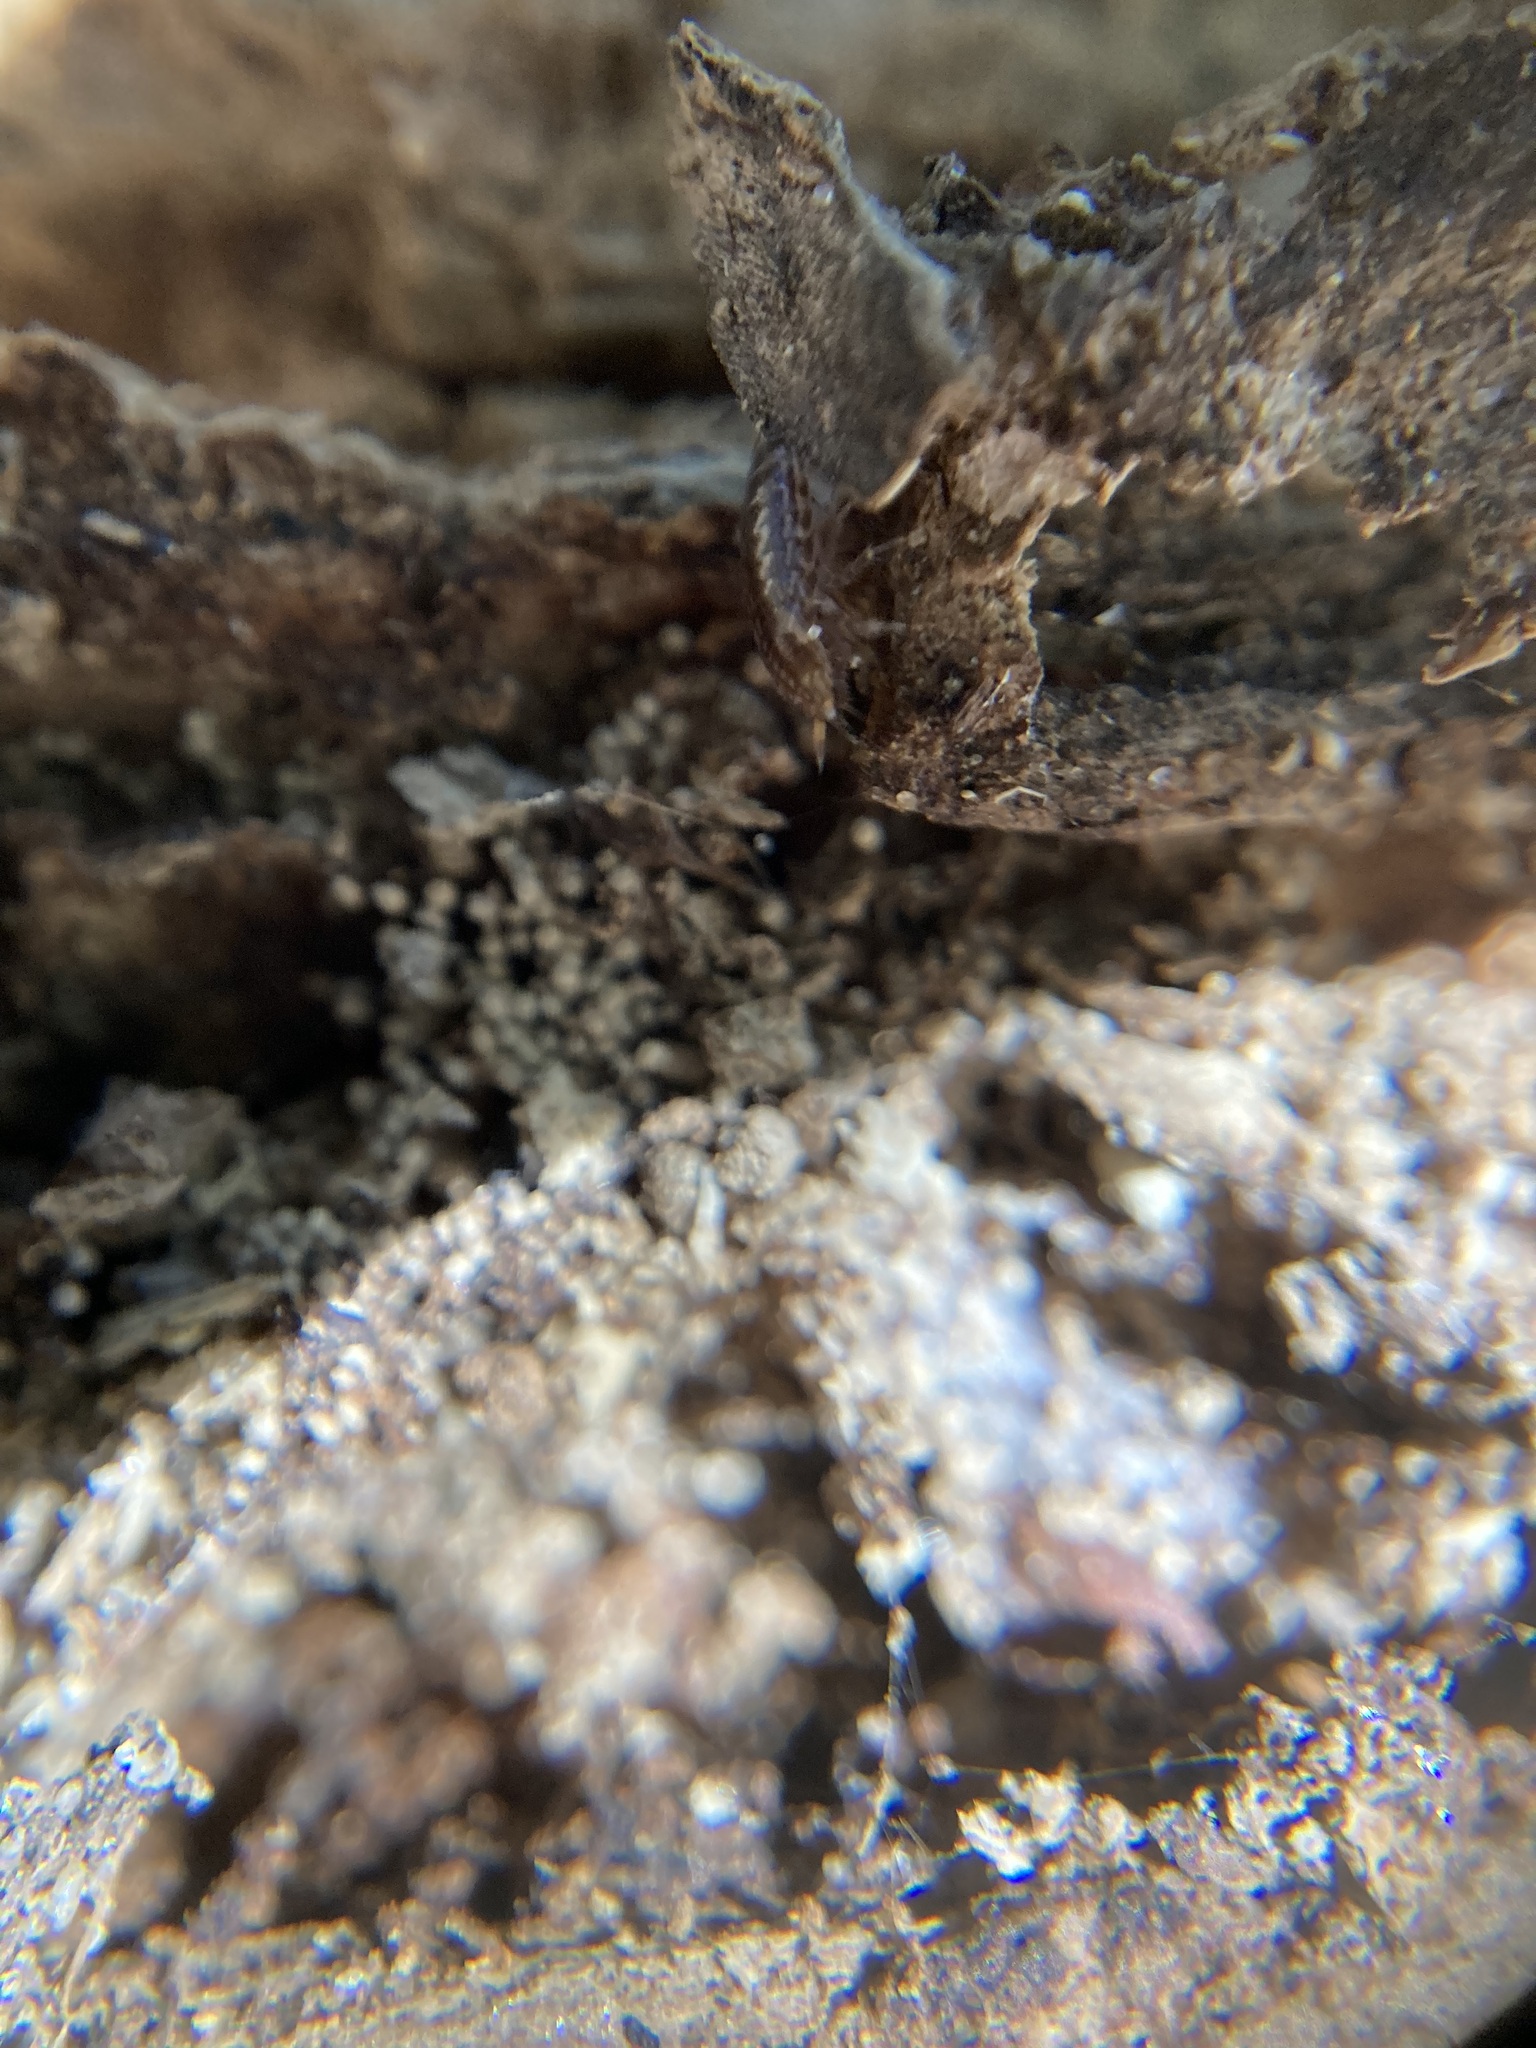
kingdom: Animalia
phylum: Arthropoda
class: Malacostraca
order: Isopoda
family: Philosciidae
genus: Atlantoscia
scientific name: Atlantoscia floridana
